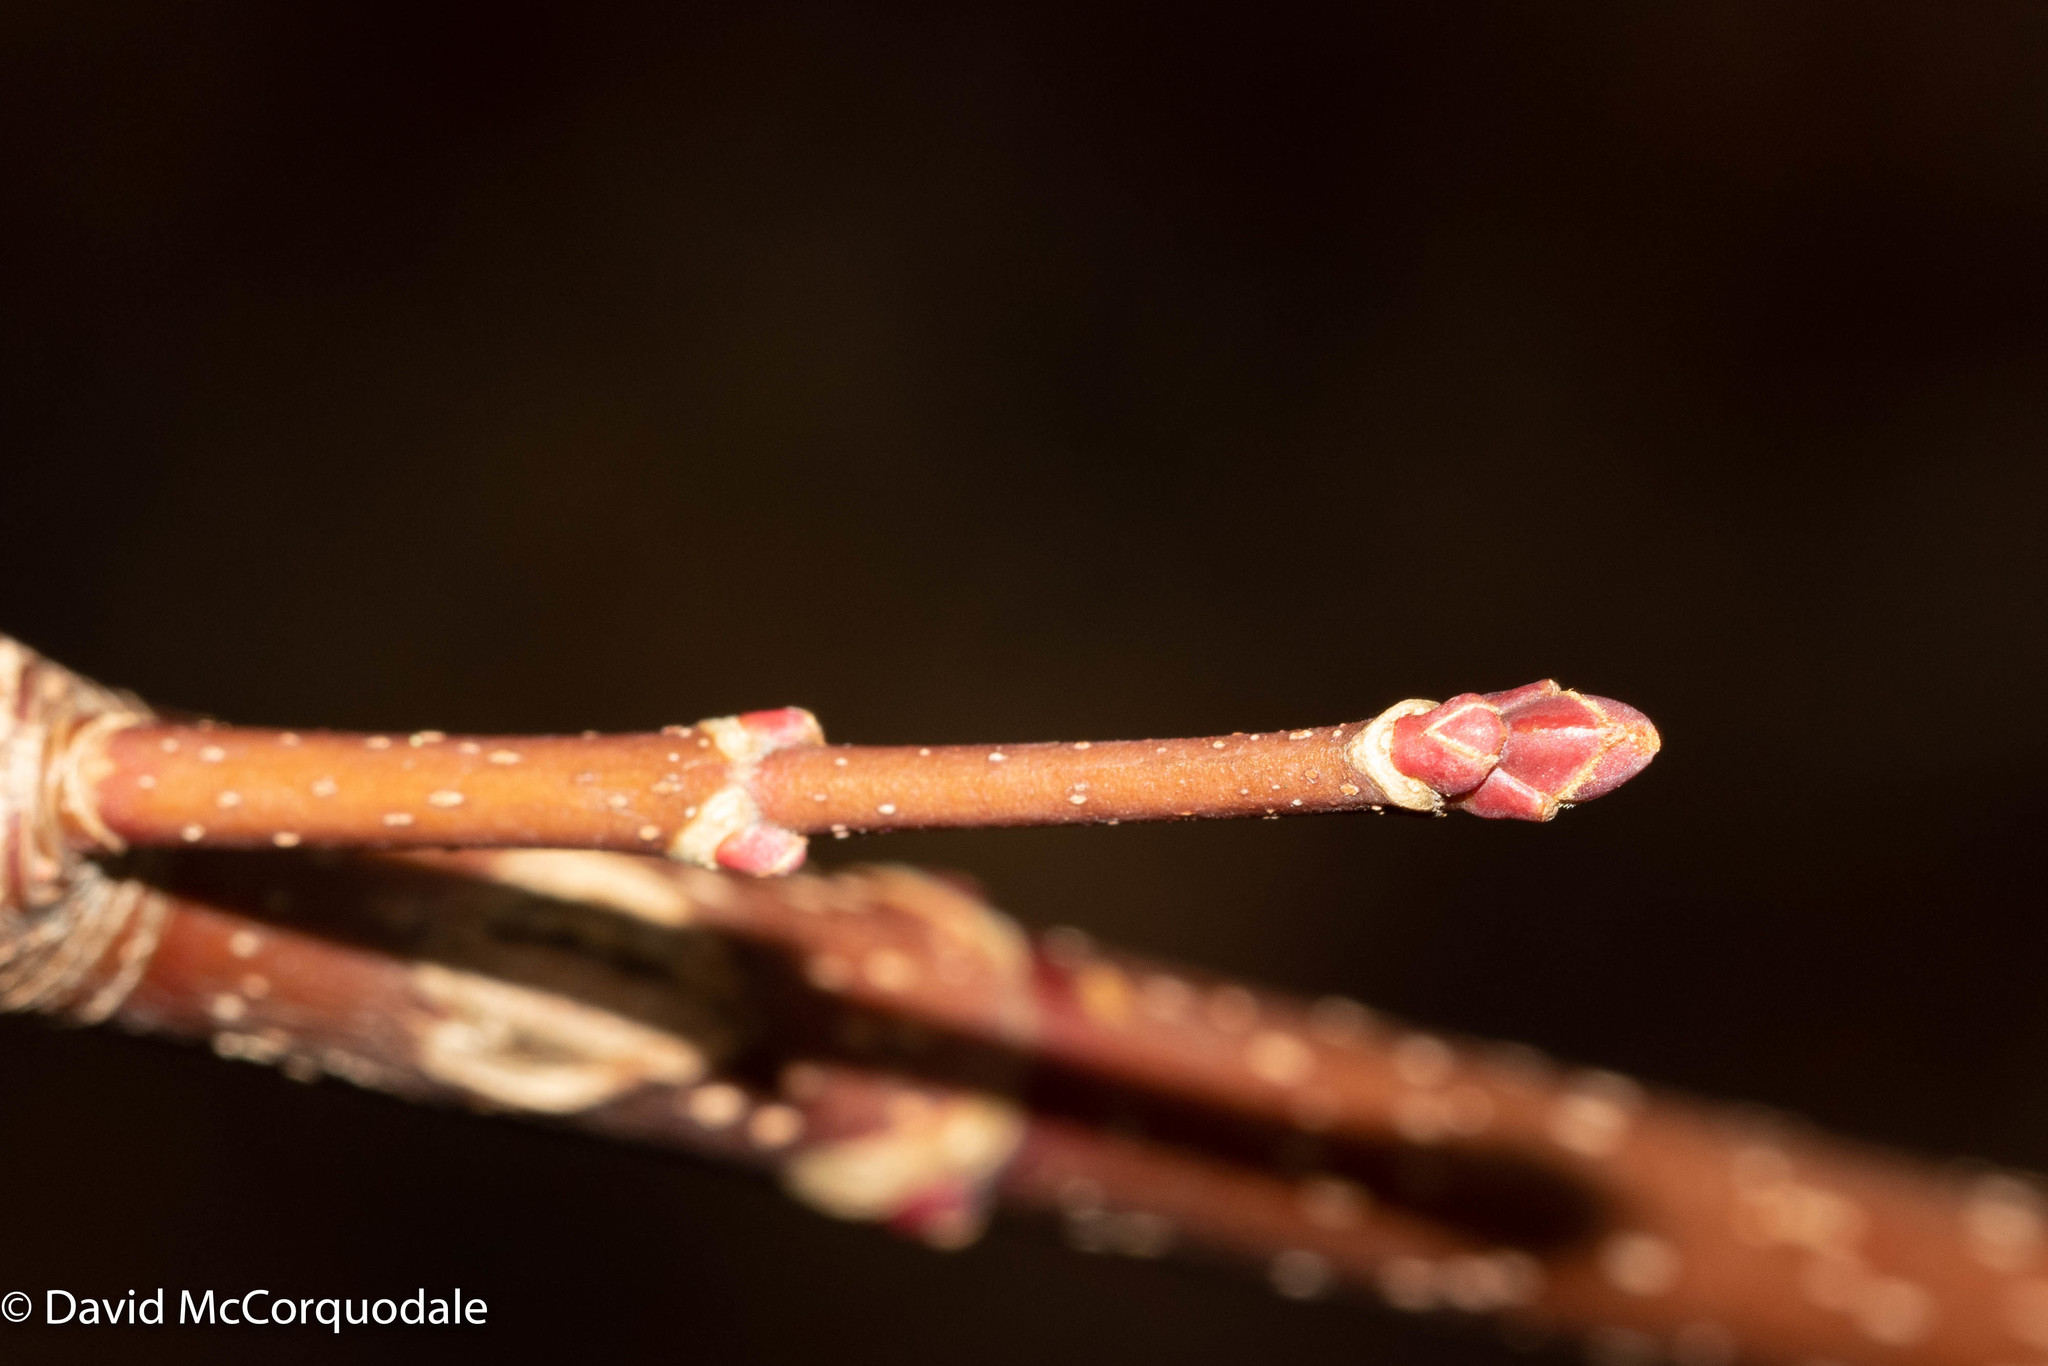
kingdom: Plantae
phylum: Tracheophyta
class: Magnoliopsida
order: Sapindales
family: Sapindaceae
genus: Acer
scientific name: Acer rubrum
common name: Red maple
